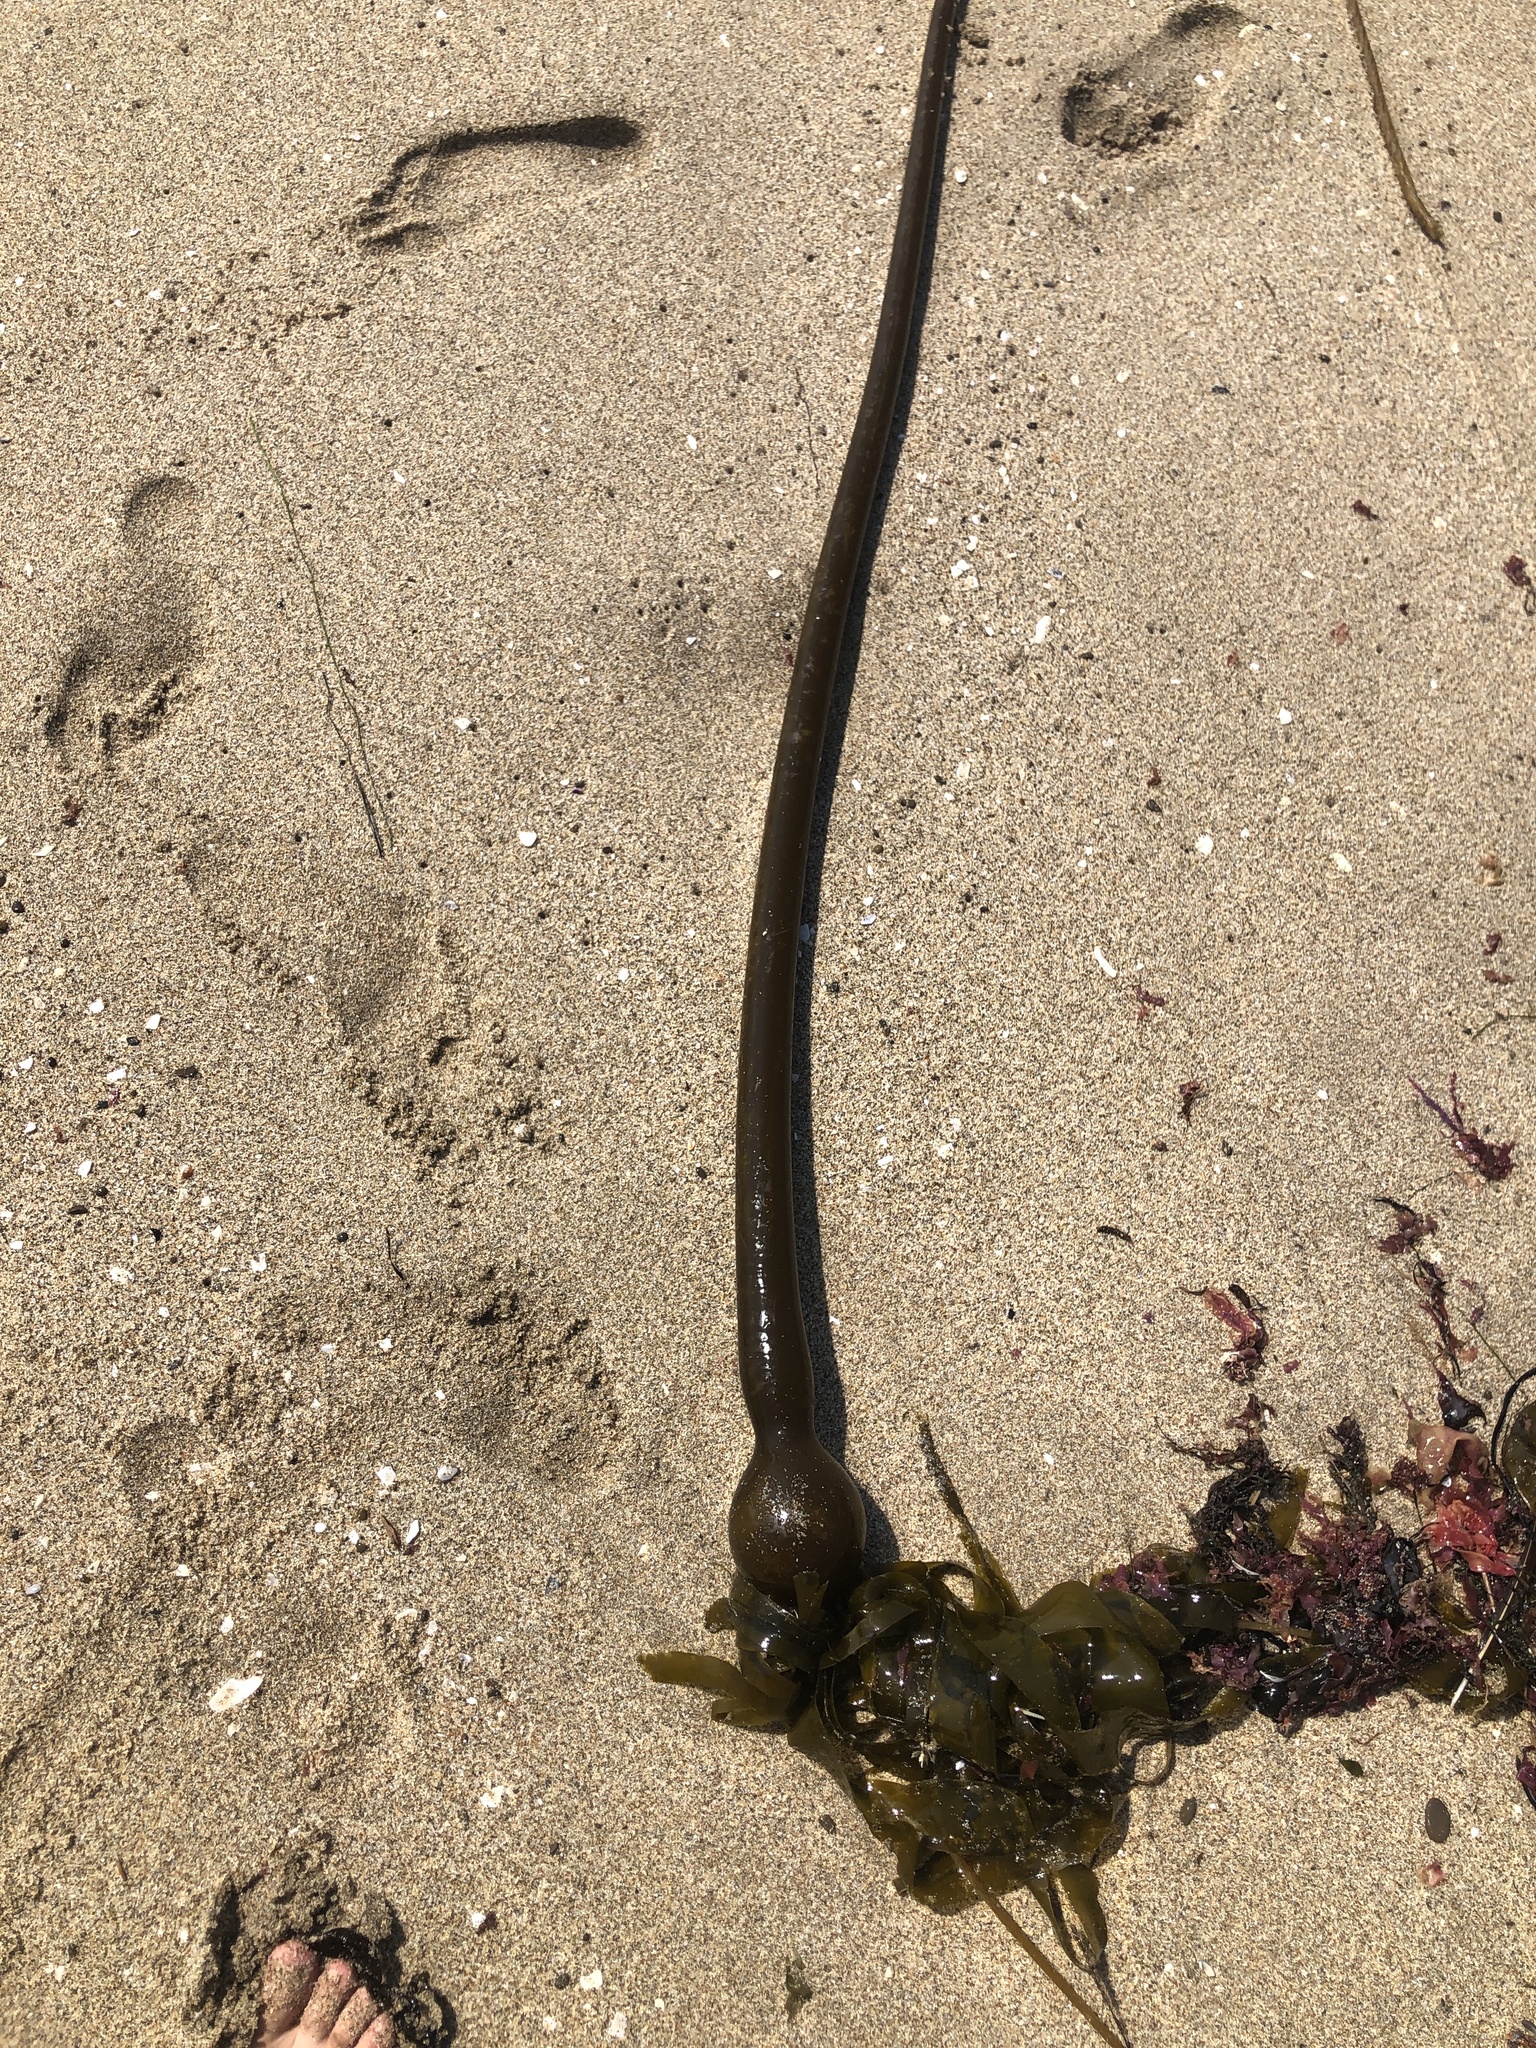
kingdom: Chromista
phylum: Ochrophyta
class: Phaeophyceae
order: Laminariales
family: Laminariaceae
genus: Nereocystis
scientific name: Nereocystis luetkeana
